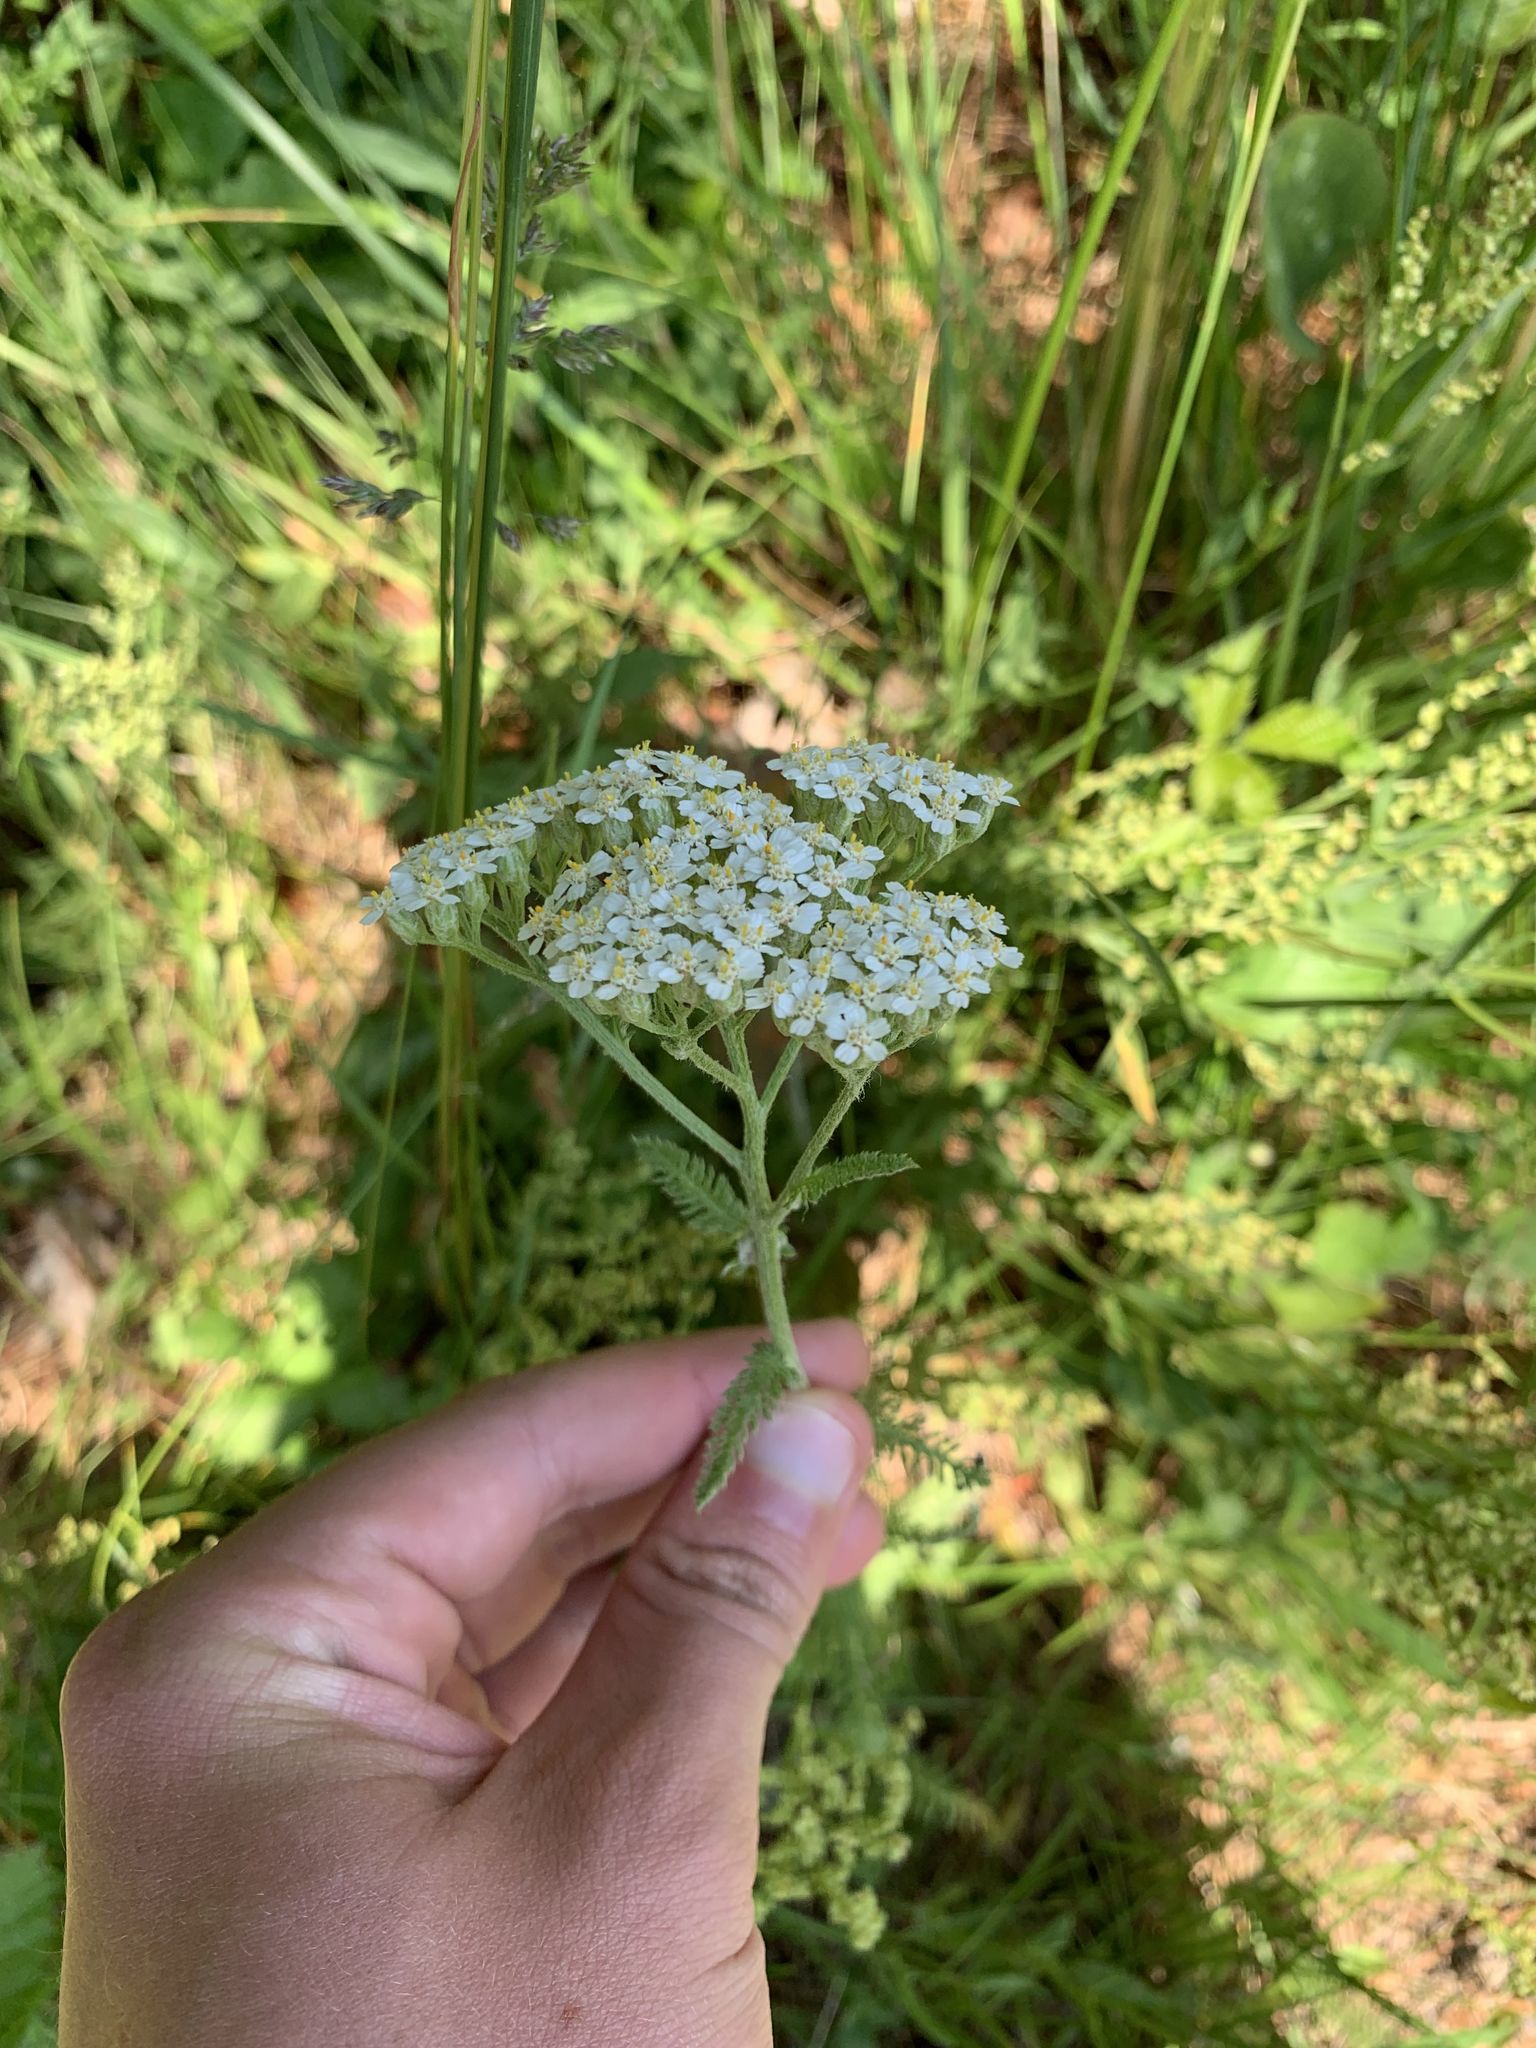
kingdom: Plantae
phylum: Tracheophyta
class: Magnoliopsida
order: Asterales
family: Asteraceae
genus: Achillea
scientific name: Achillea millefolium
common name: Yarrow
